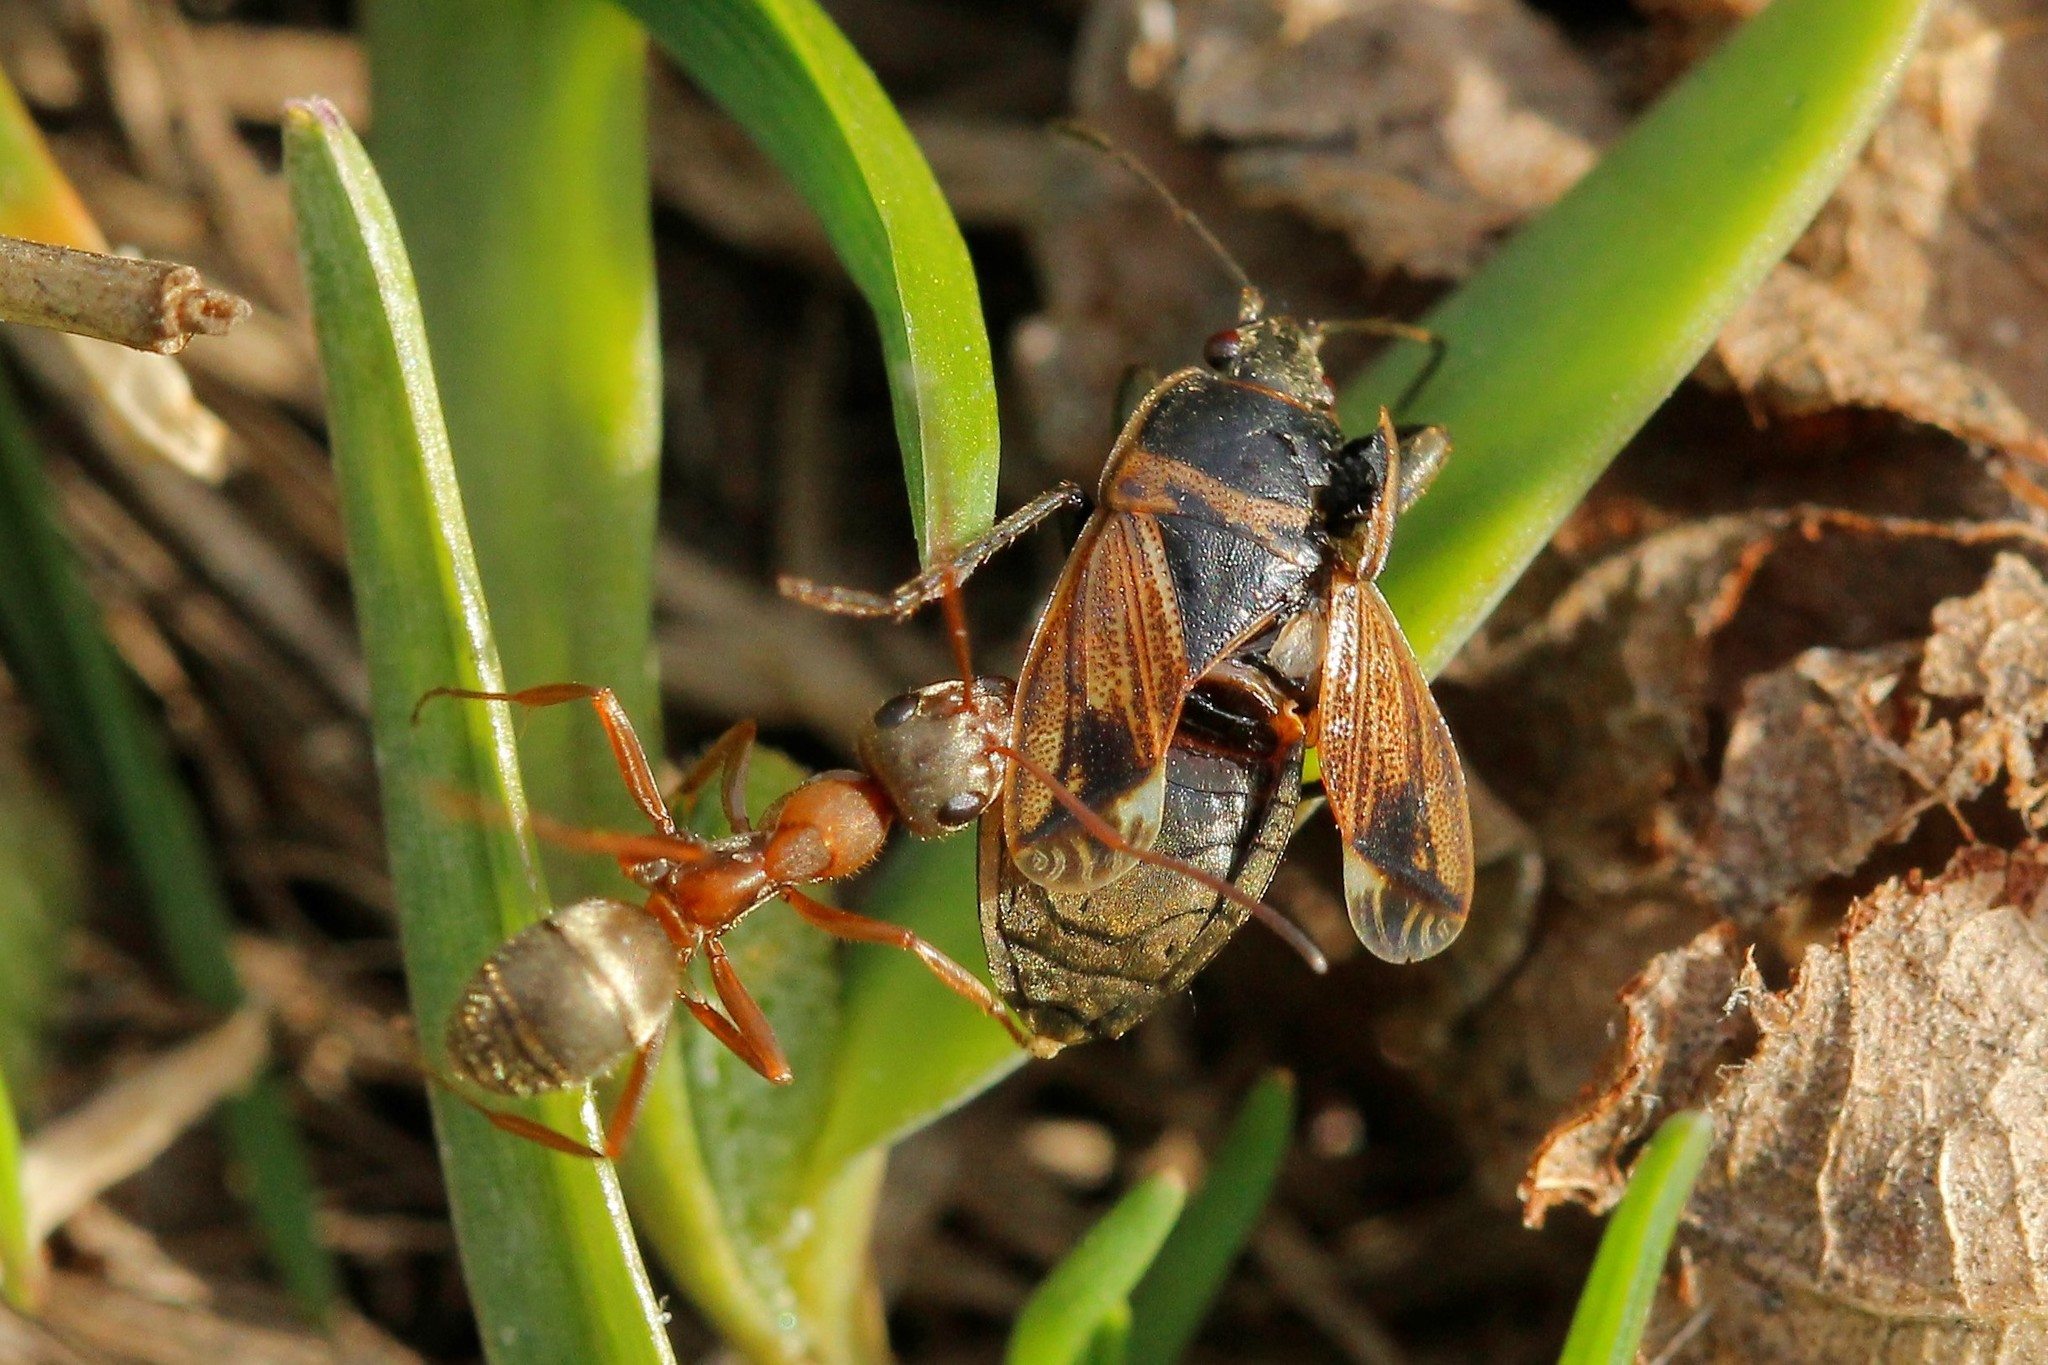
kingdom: Animalia
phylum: Arthropoda
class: Insecta
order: Hymenoptera
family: Formicidae
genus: Formica
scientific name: Formica cinerea
